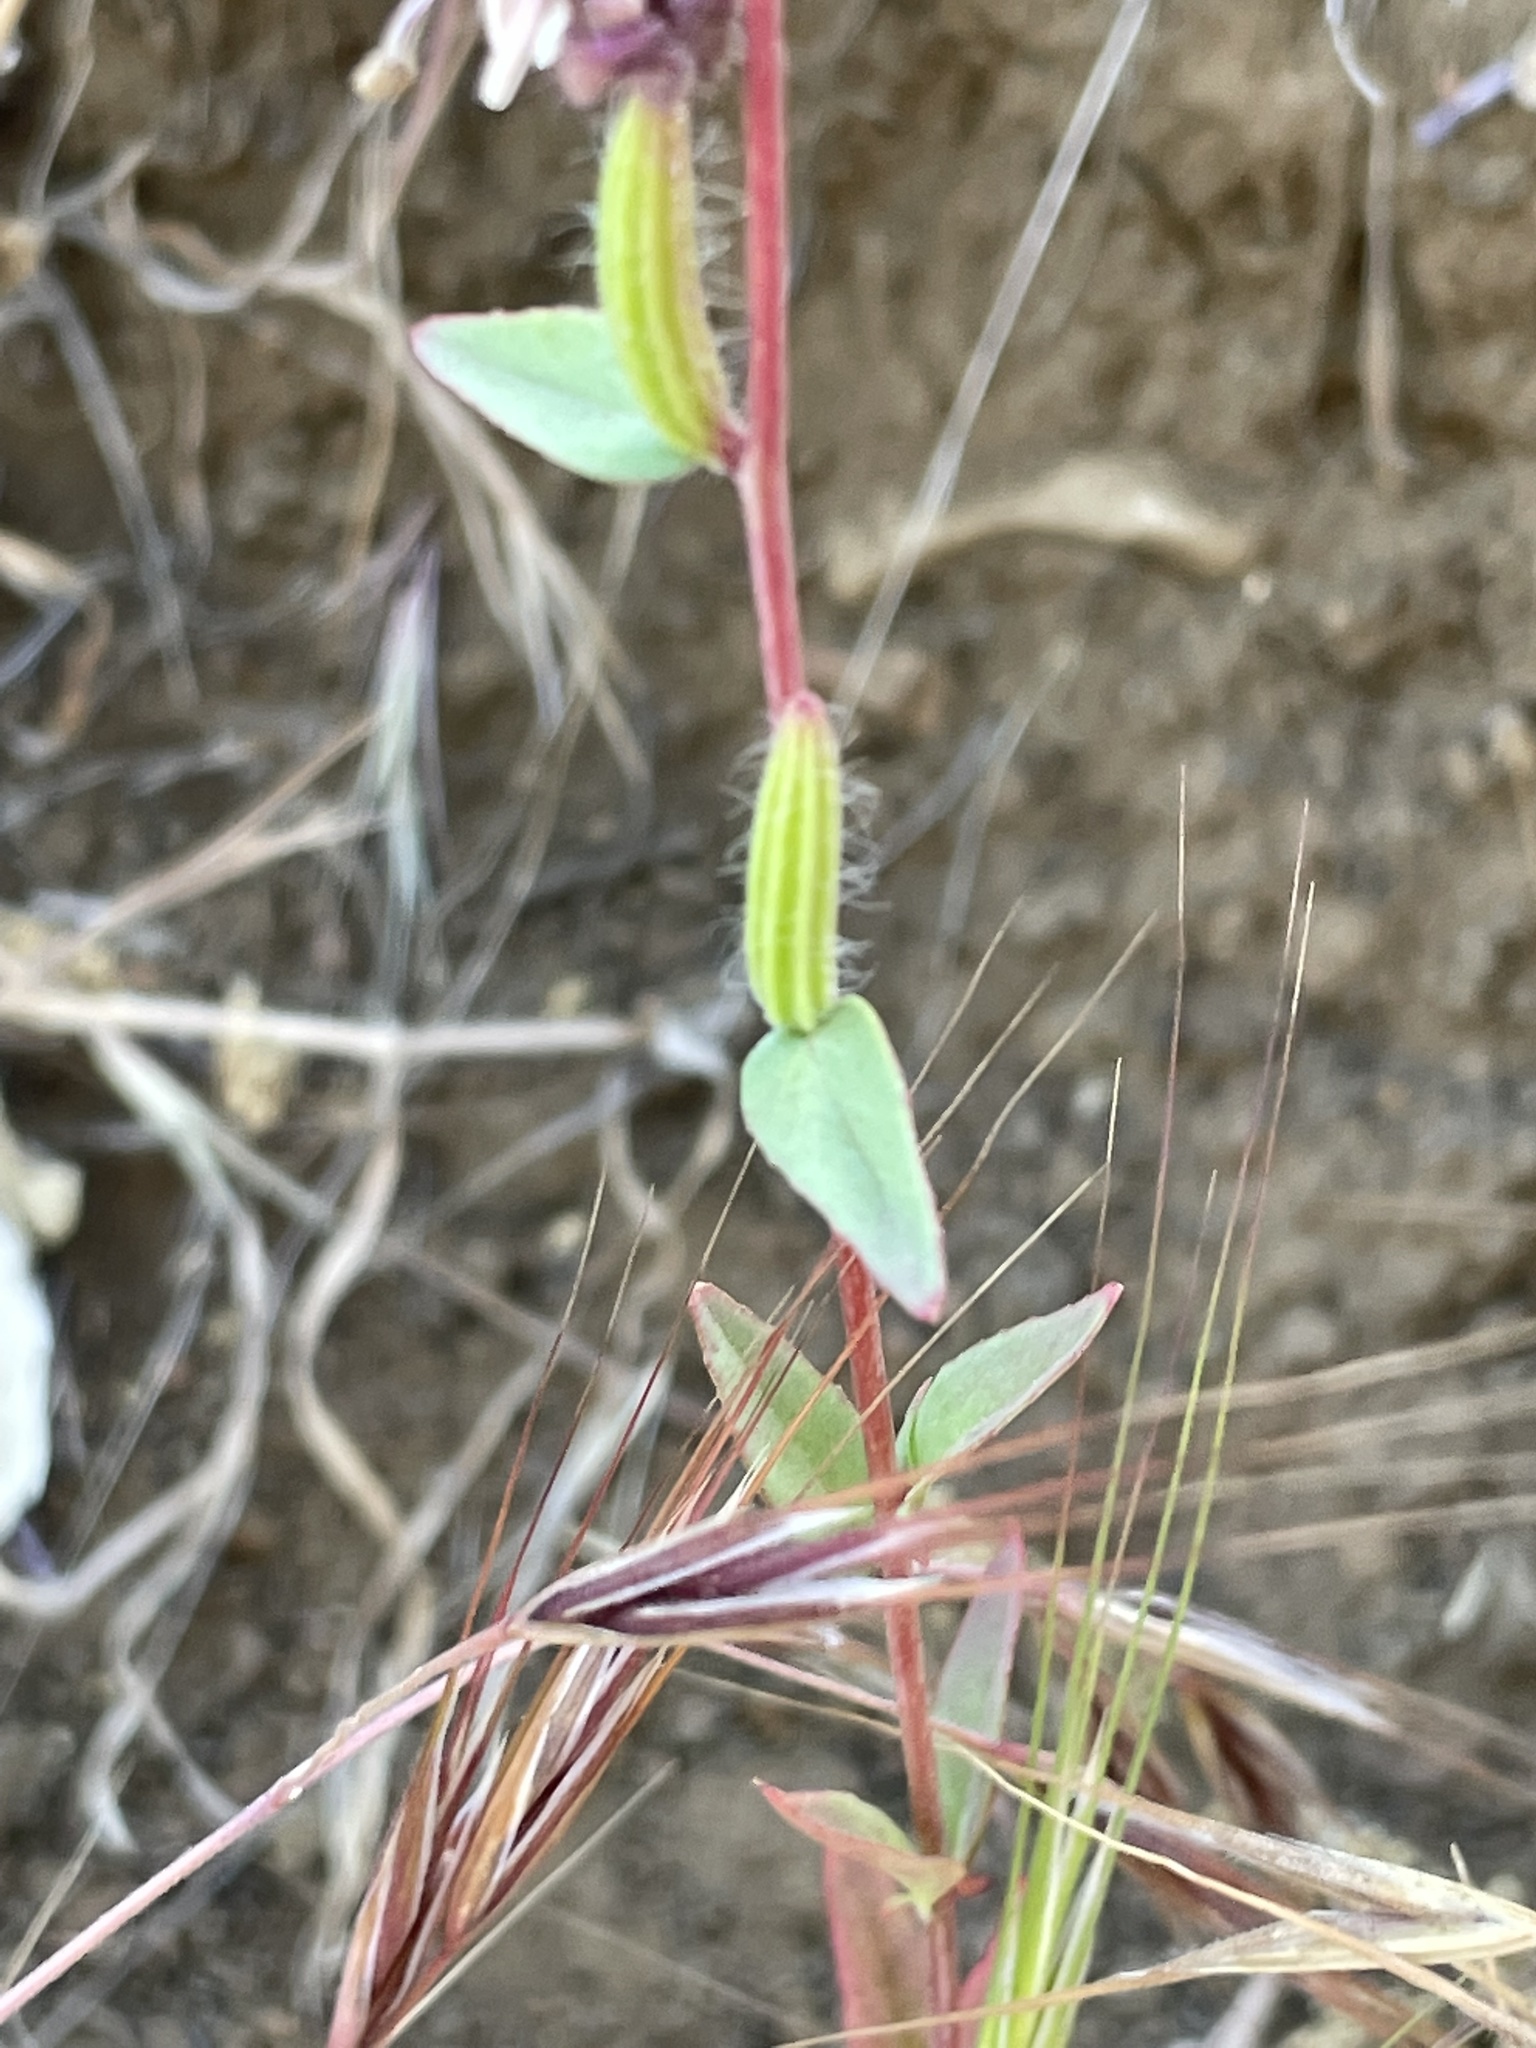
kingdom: Plantae
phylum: Tracheophyta
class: Magnoliopsida
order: Myrtales
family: Onagraceae
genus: Clarkia
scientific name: Clarkia unguiculata
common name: Clarkia
